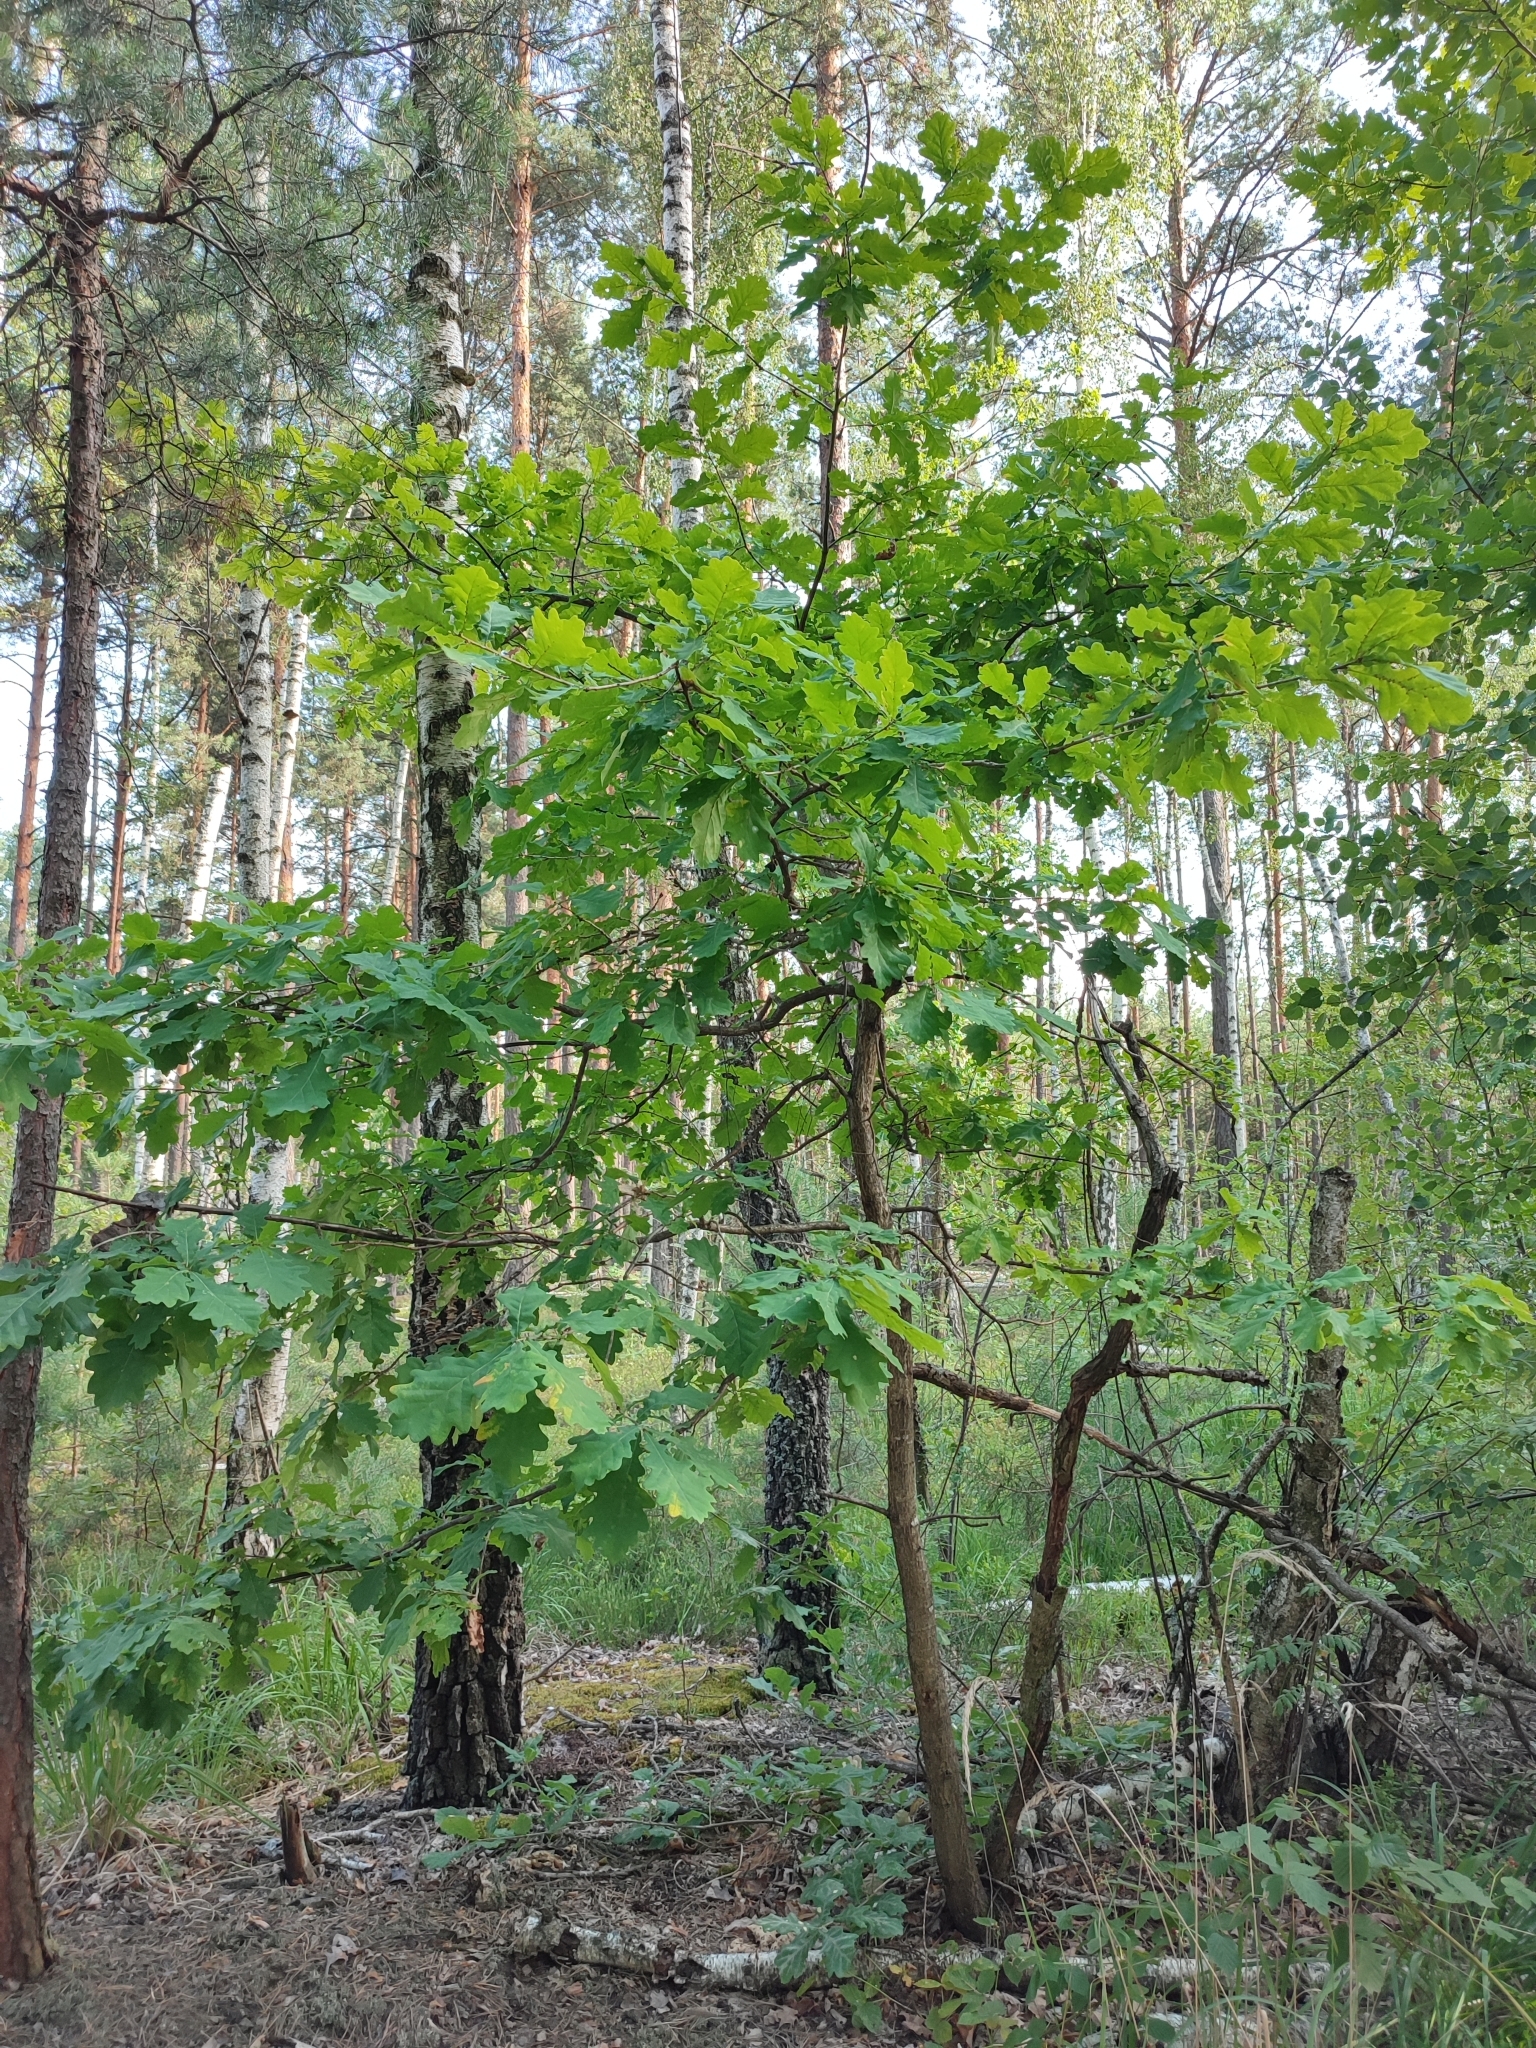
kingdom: Plantae
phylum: Tracheophyta
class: Magnoliopsida
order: Fagales
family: Fagaceae
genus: Quercus
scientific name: Quercus robur
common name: Pedunculate oak
